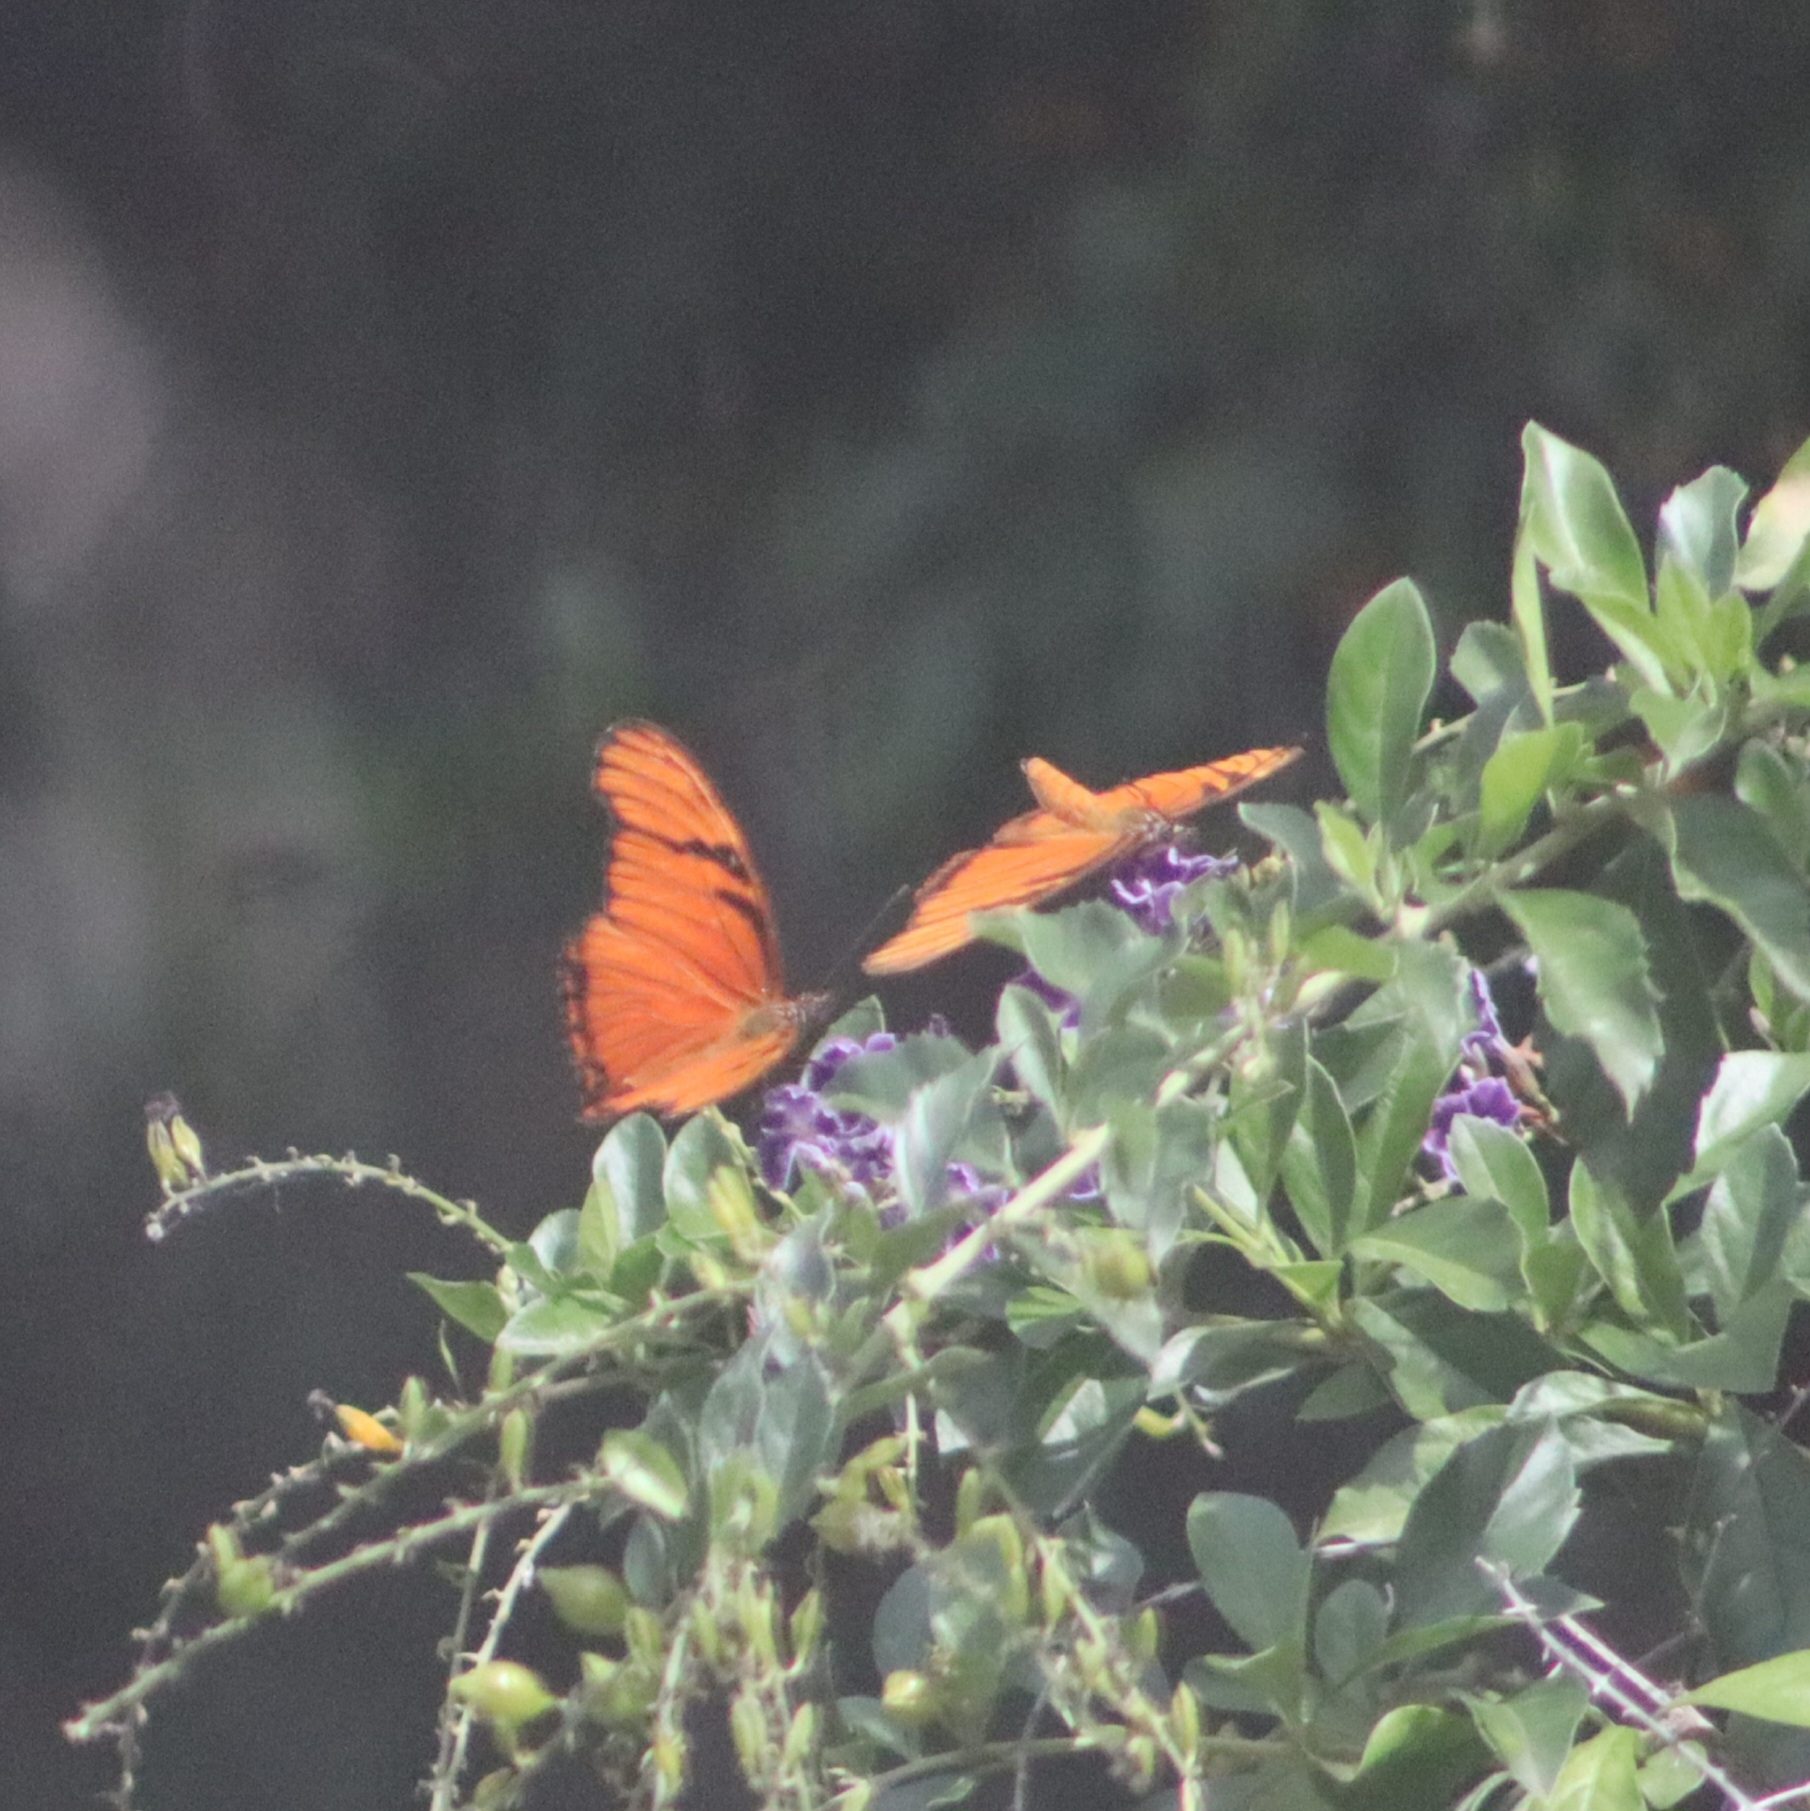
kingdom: Animalia
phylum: Arthropoda
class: Insecta
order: Lepidoptera
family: Nymphalidae
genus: Dione
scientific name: Dione juno
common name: Juno silverspot
